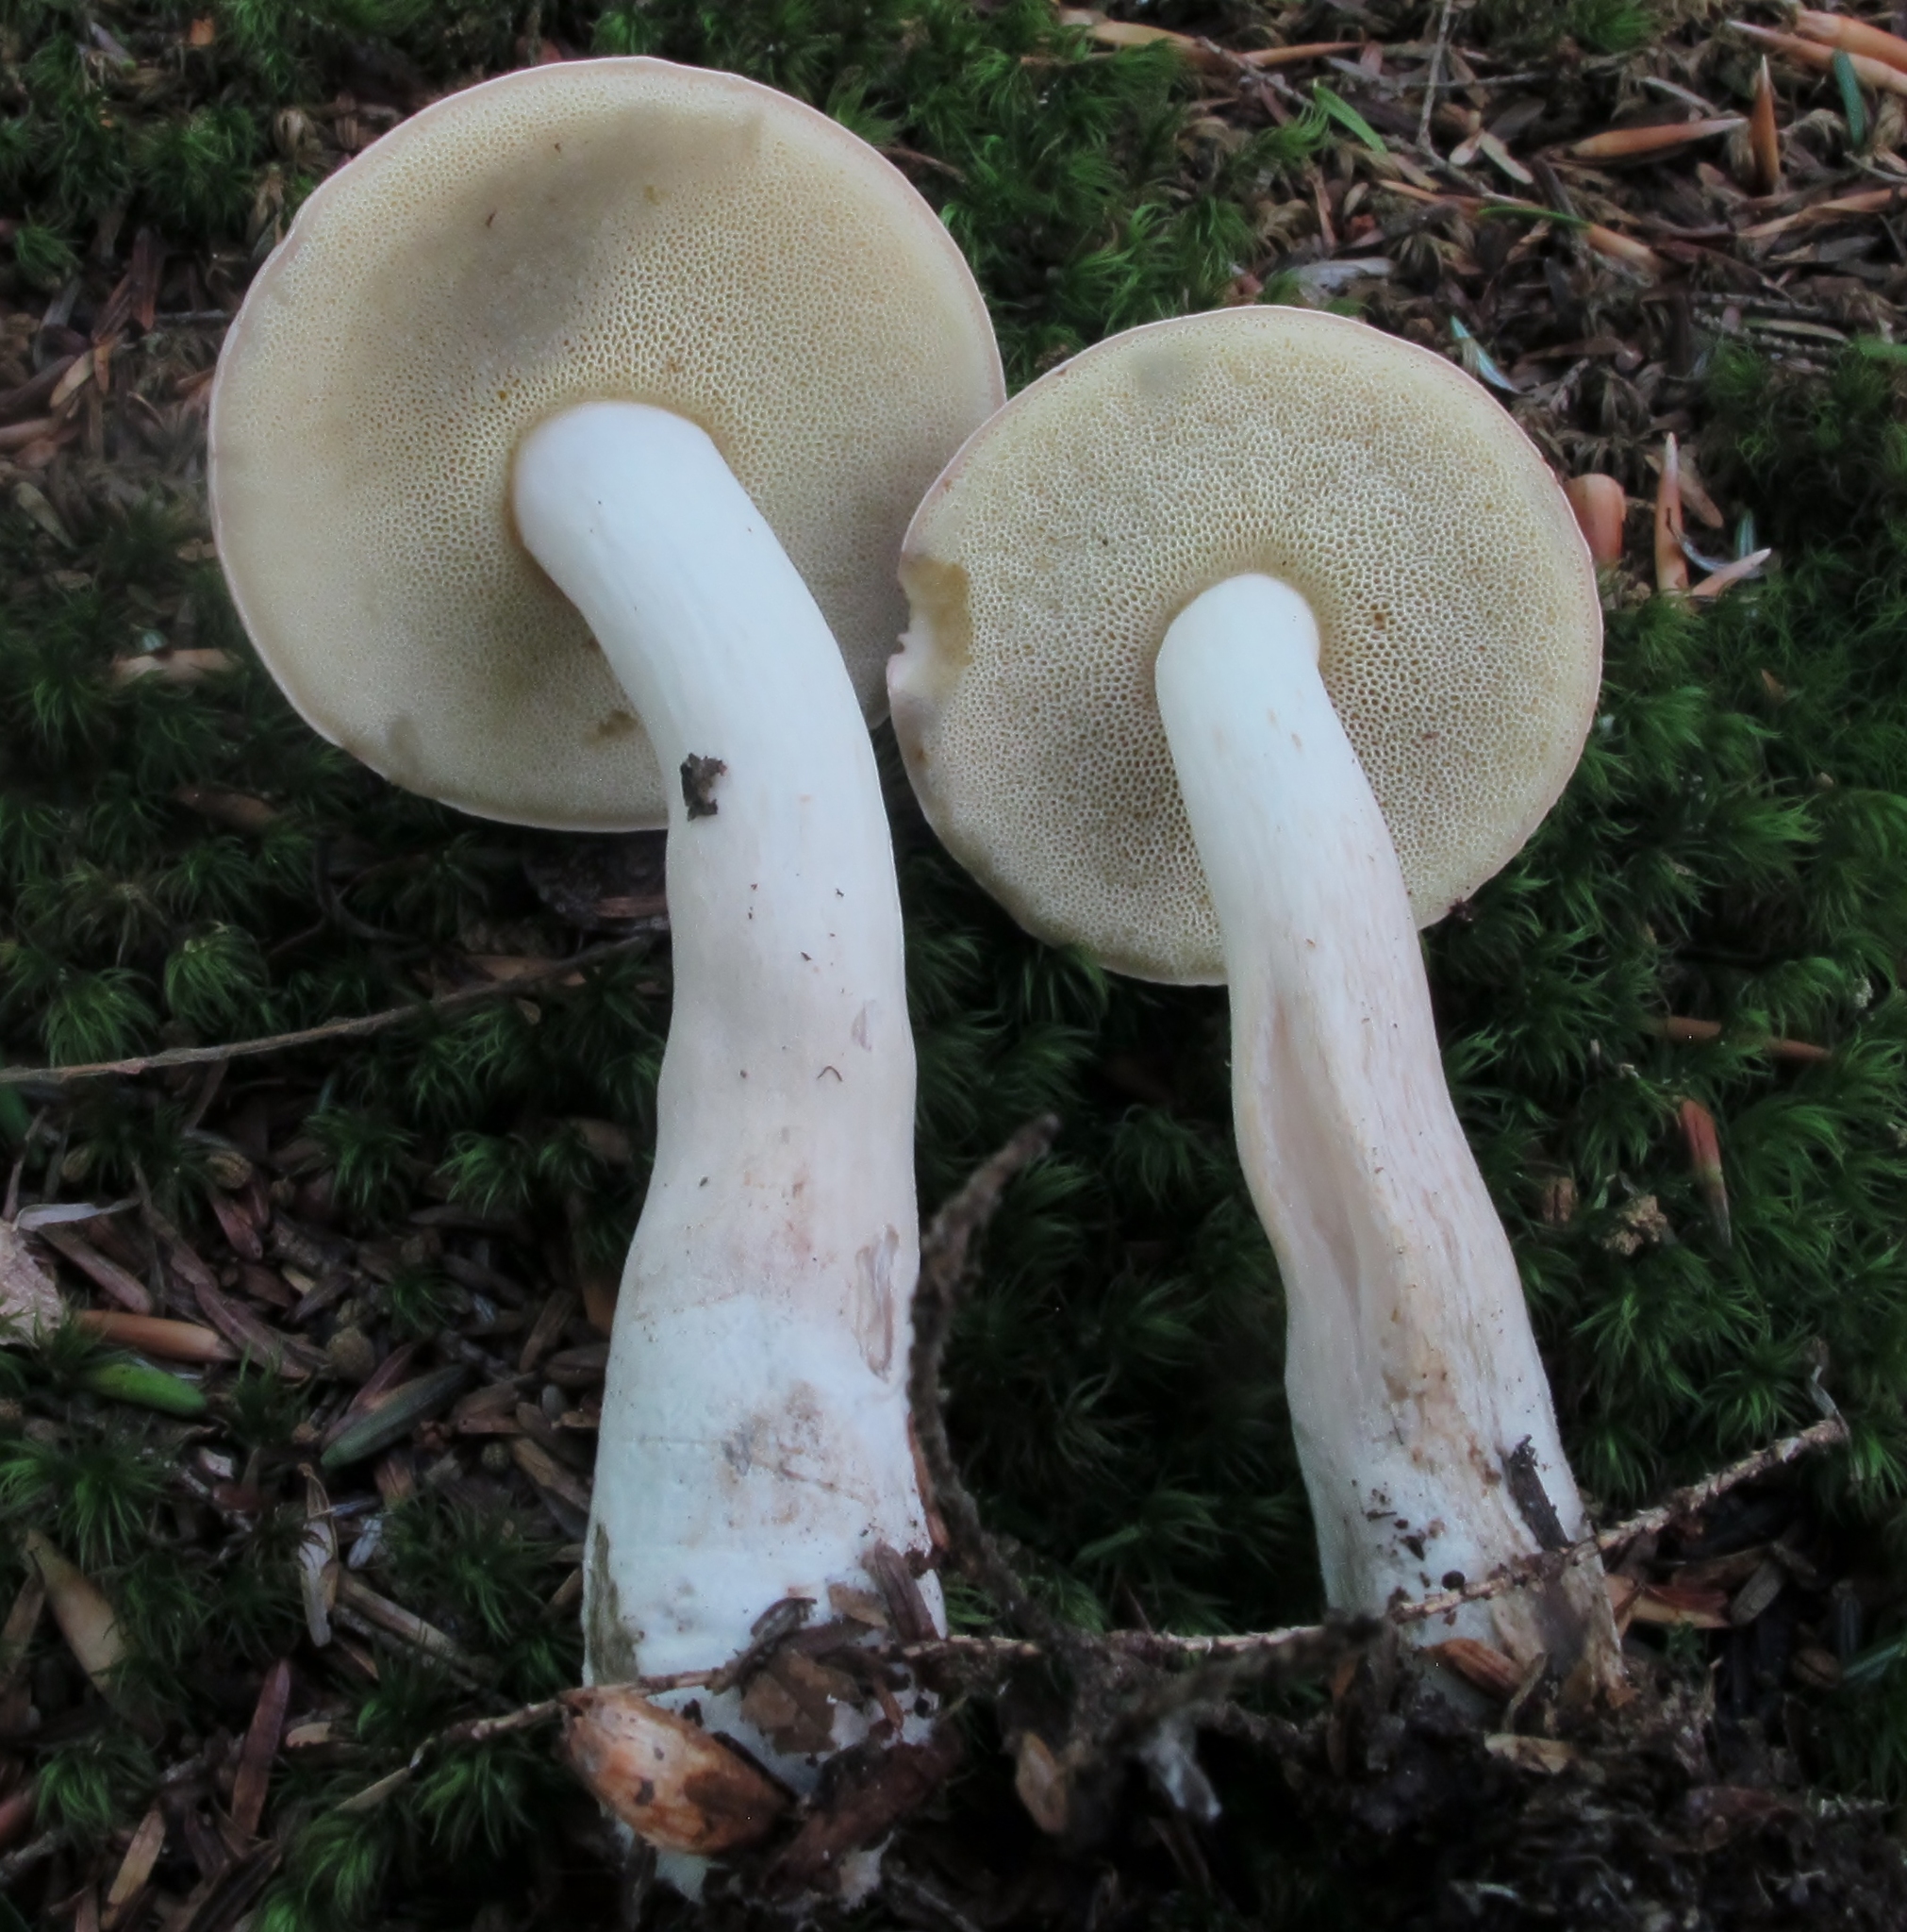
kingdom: Fungi
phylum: Basidiomycota
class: Agaricomycetes
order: Boletales
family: Boletaceae
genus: Imleria
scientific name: Imleria pallida
